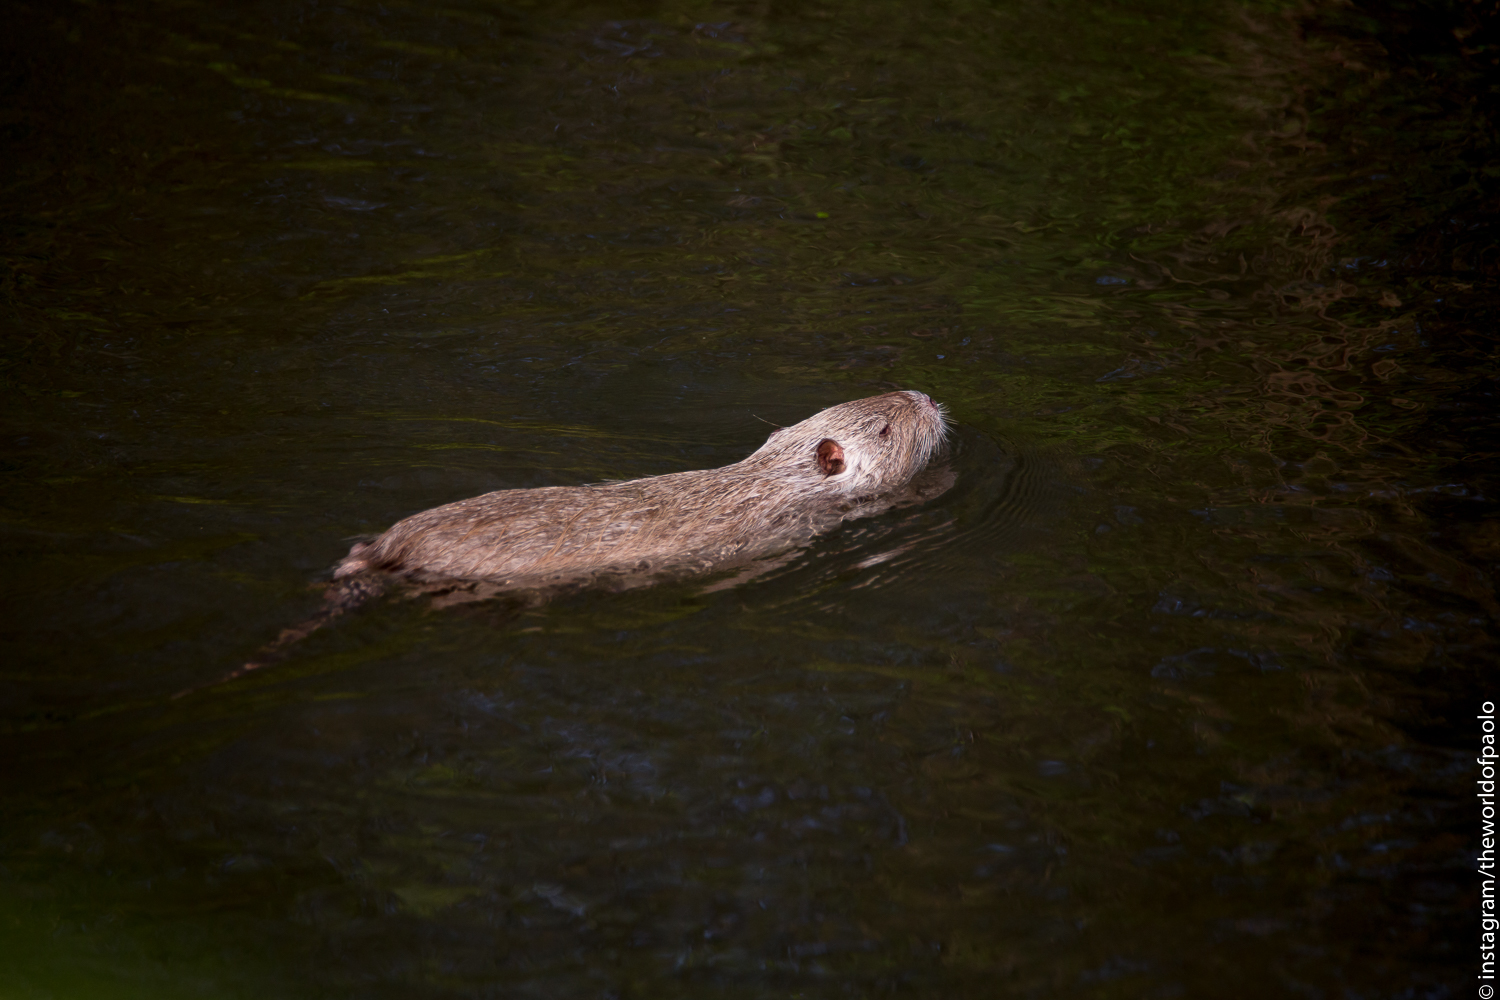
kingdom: Animalia
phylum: Chordata
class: Mammalia
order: Rodentia
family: Myocastoridae
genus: Myocastor
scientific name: Myocastor coypus
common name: Coypu
